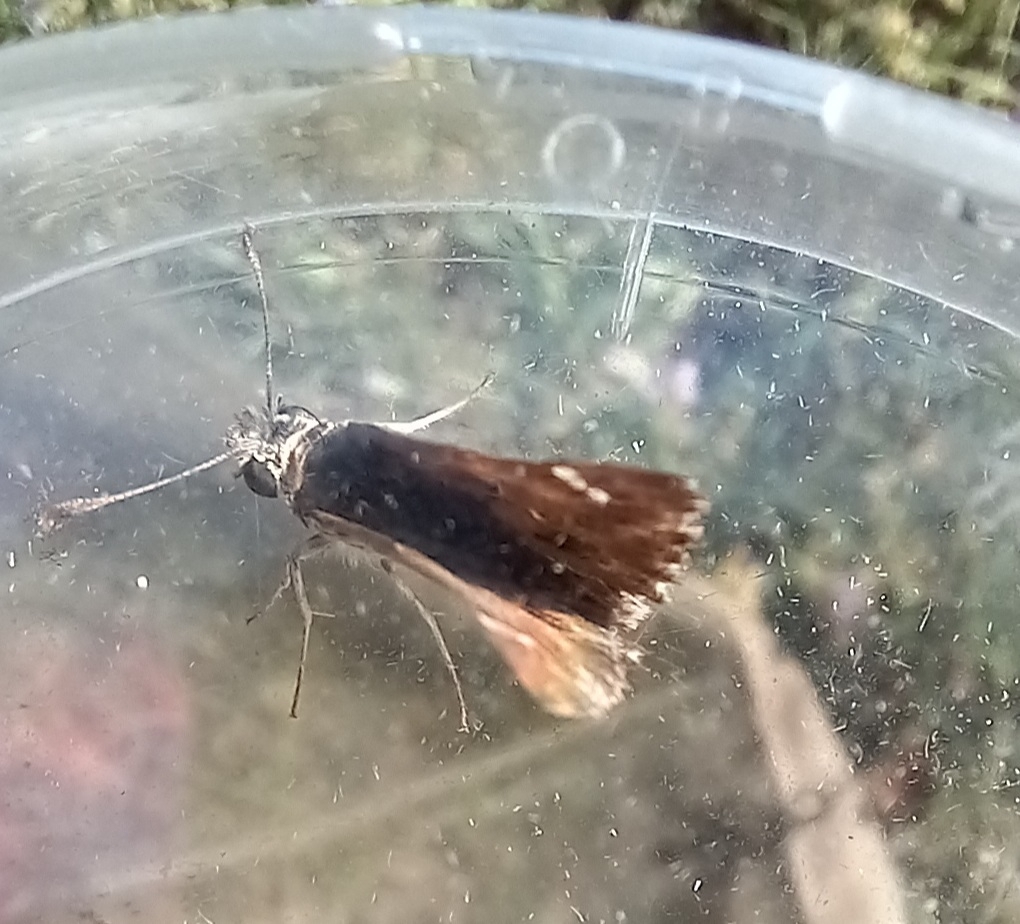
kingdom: Animalia
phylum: Arthropoda
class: Insecta
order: Lepidoptera
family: Hesperiidae
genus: Carcharodus
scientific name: Carcharodus alceae
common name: Mallow skipper
